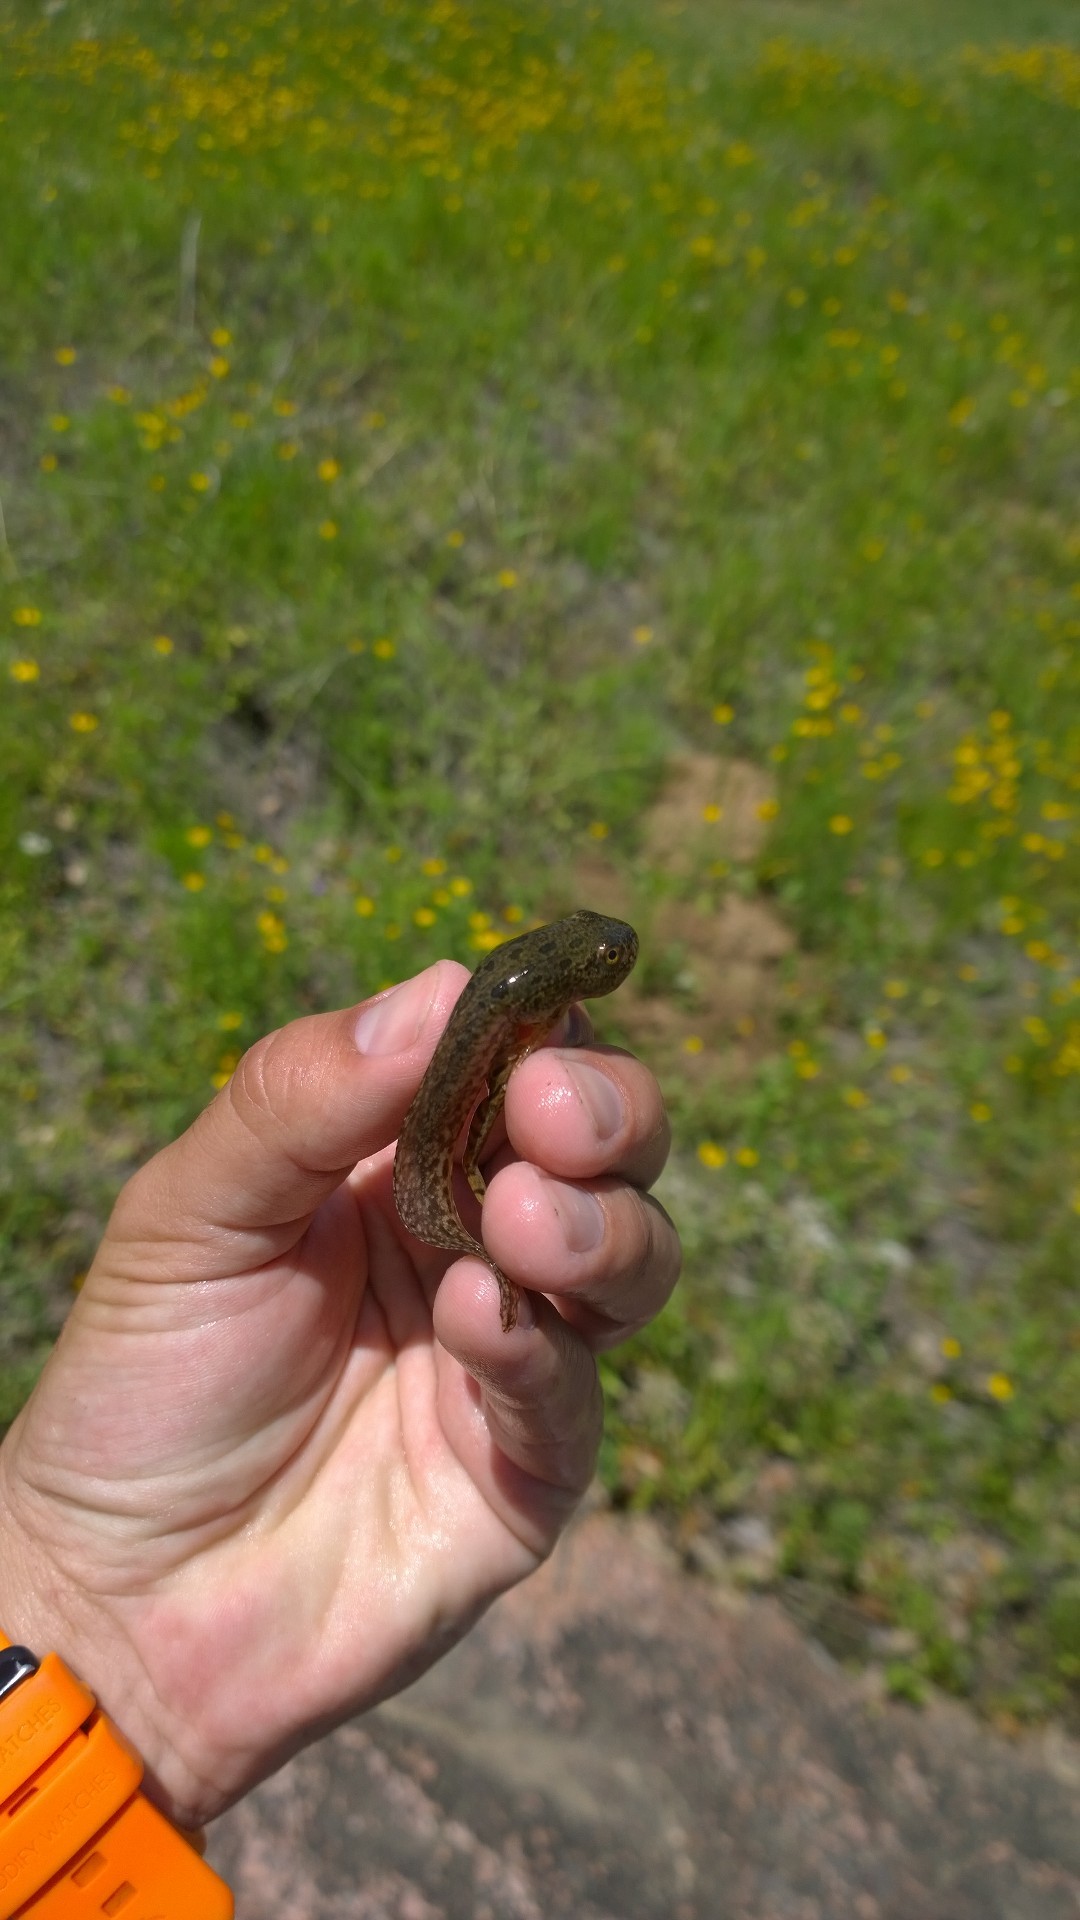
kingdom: Animalia
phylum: Chordata
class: Amphibia
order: Anura
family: Ranidae
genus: Lithobates
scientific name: Lithobates berlandieri
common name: Rio grande leopard frog
